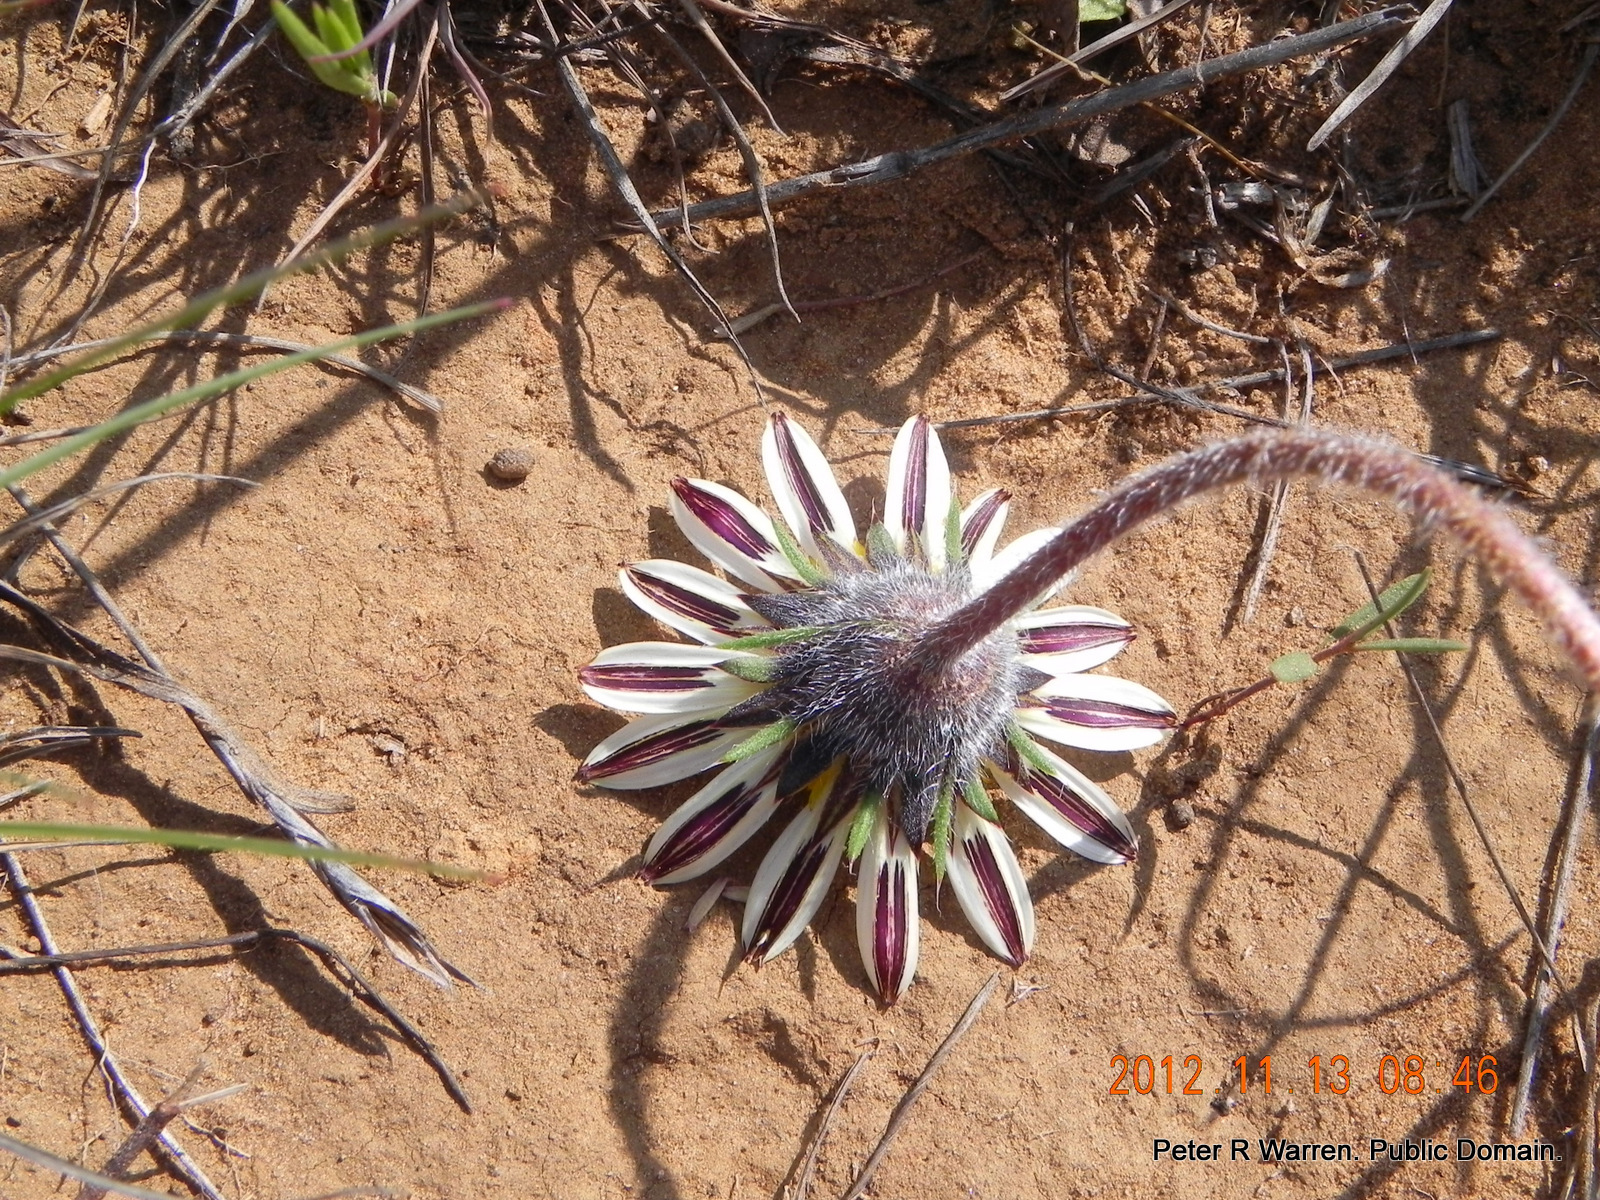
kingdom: Plantae
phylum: Tracheophyta
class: Magnoliopsida
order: Asterales
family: Asteraceae
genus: Roessleria
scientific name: Roessleria armerioides
